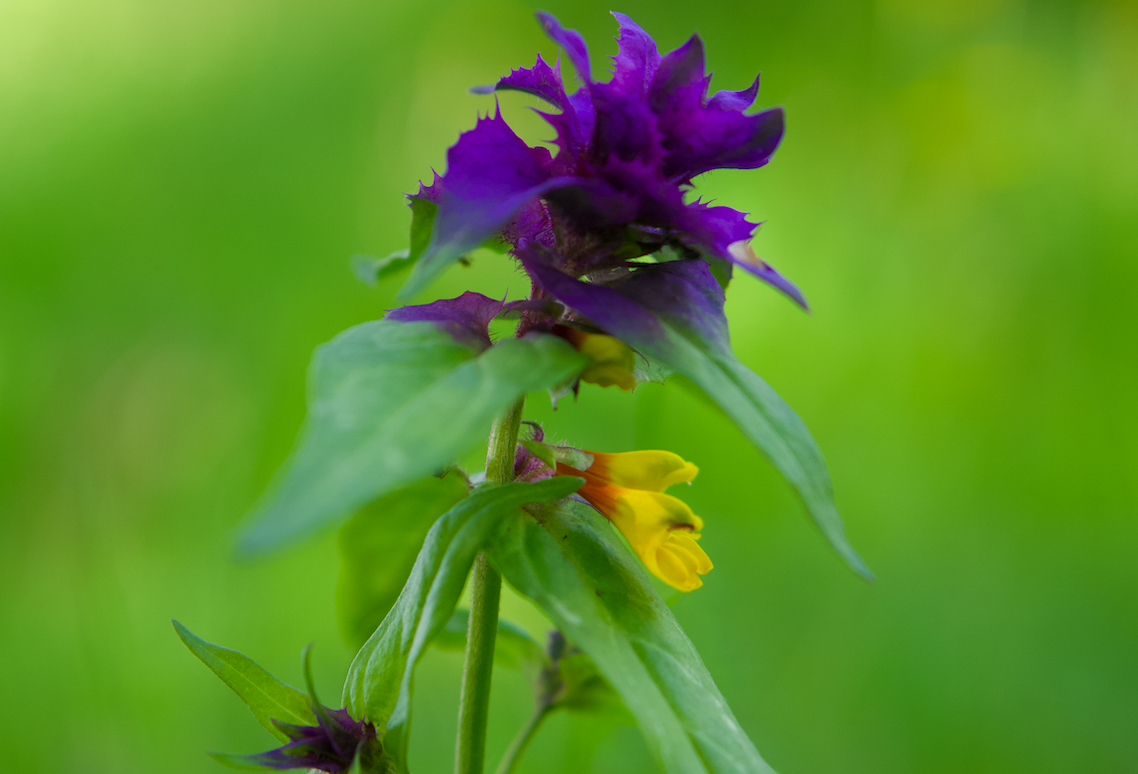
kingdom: Plantae
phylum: Tracheophyta
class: Magnoliopsida
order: Lamiales
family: Orobanchaceae
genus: Melampyrum
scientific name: Melampyrum nemorosum
